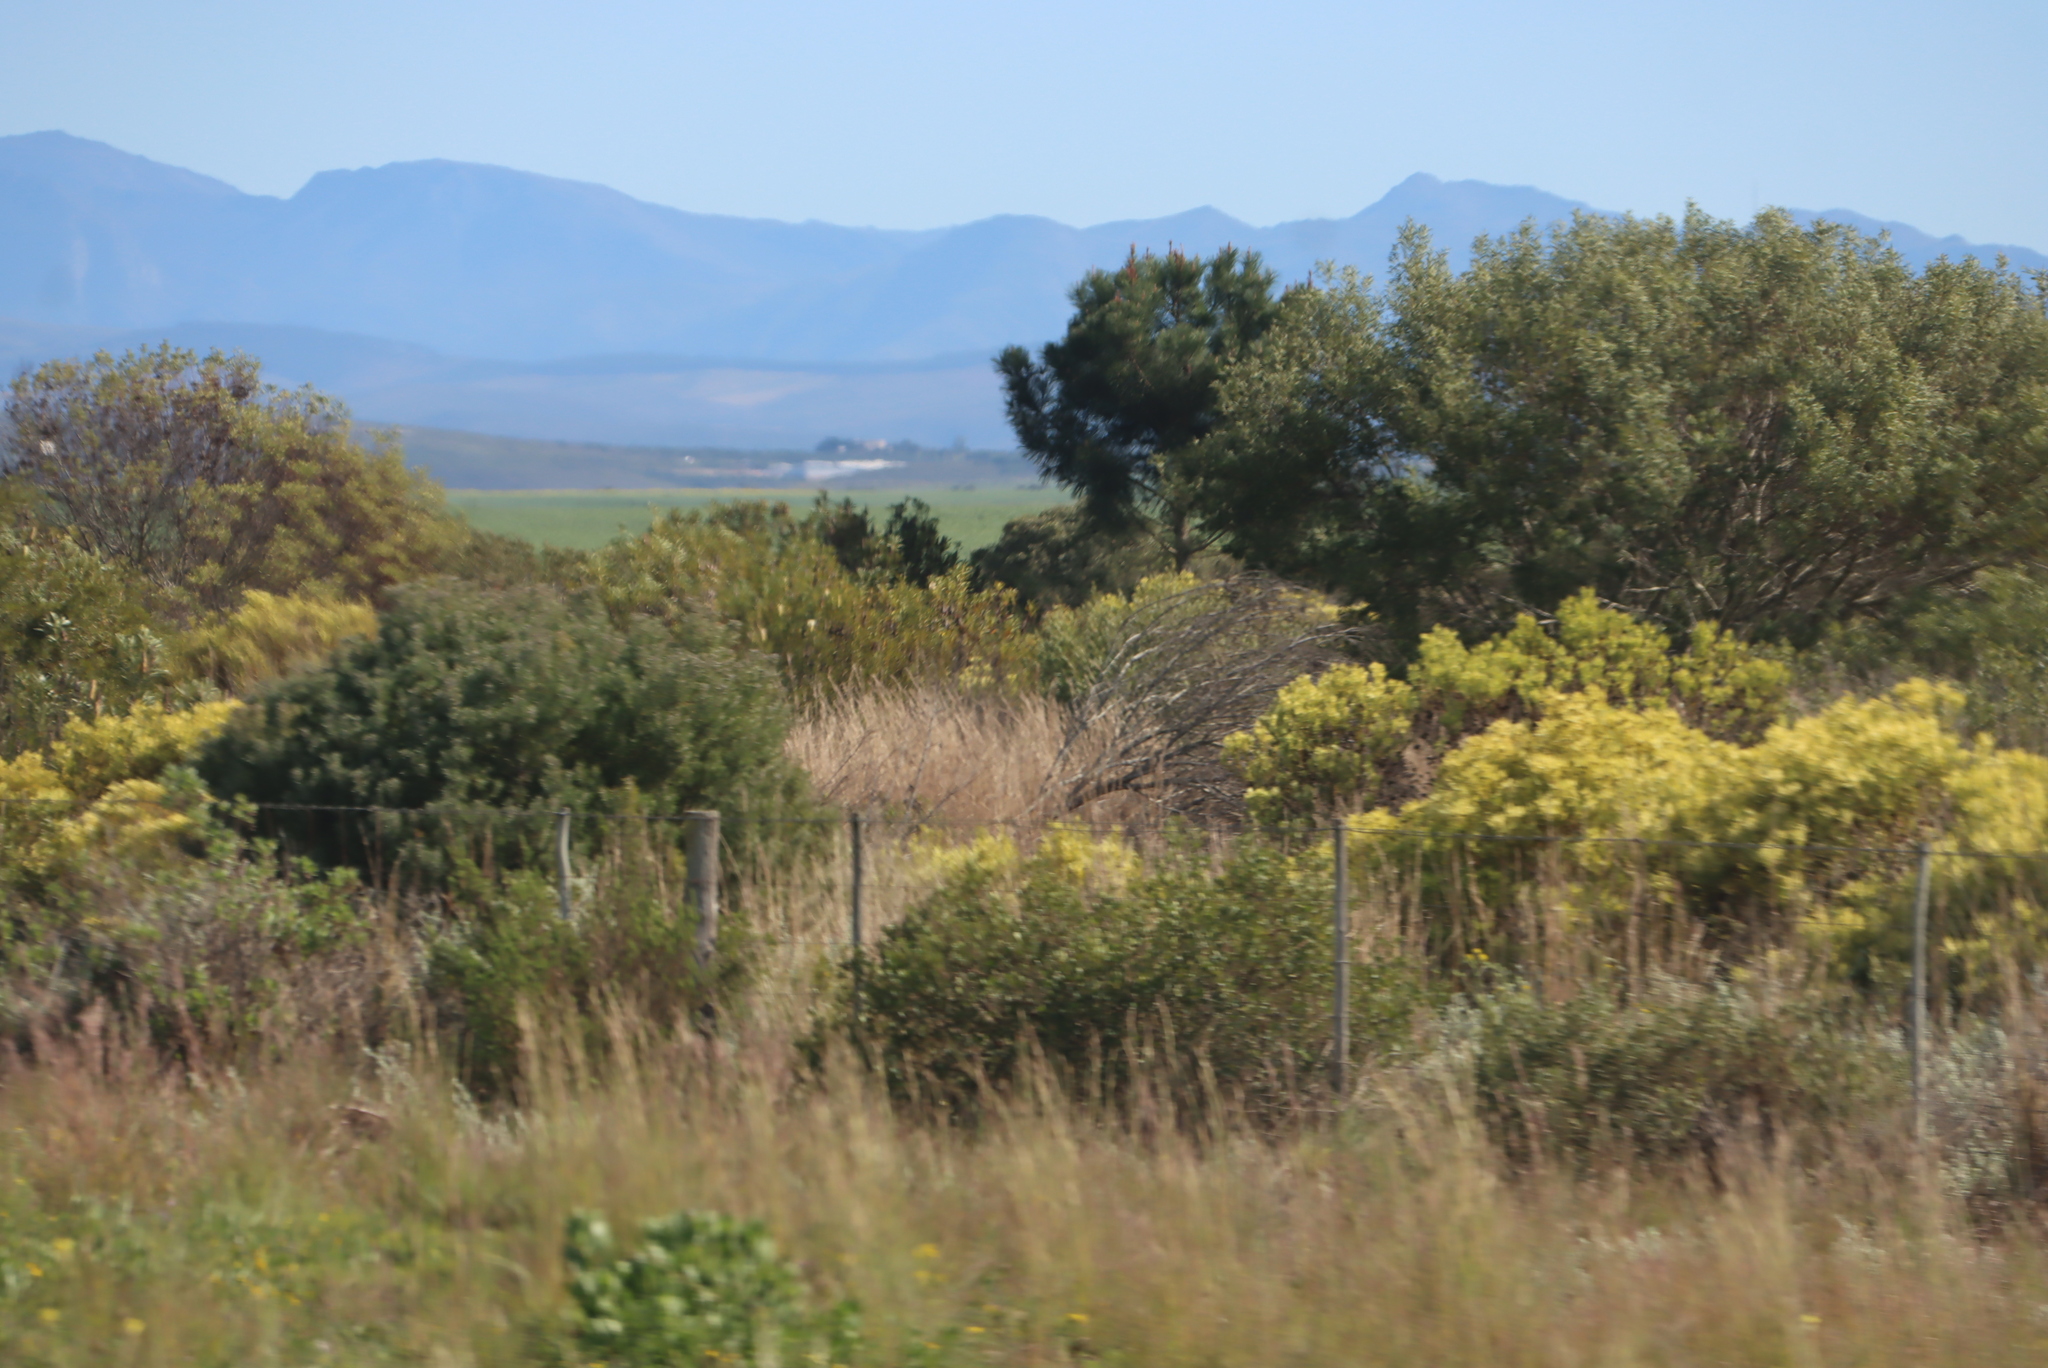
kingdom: Plantae
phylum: Tracheophyta
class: Magnoliopsida
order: Proteales
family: Proteaceae
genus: Protea
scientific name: Protea repens
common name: Sugarbush
